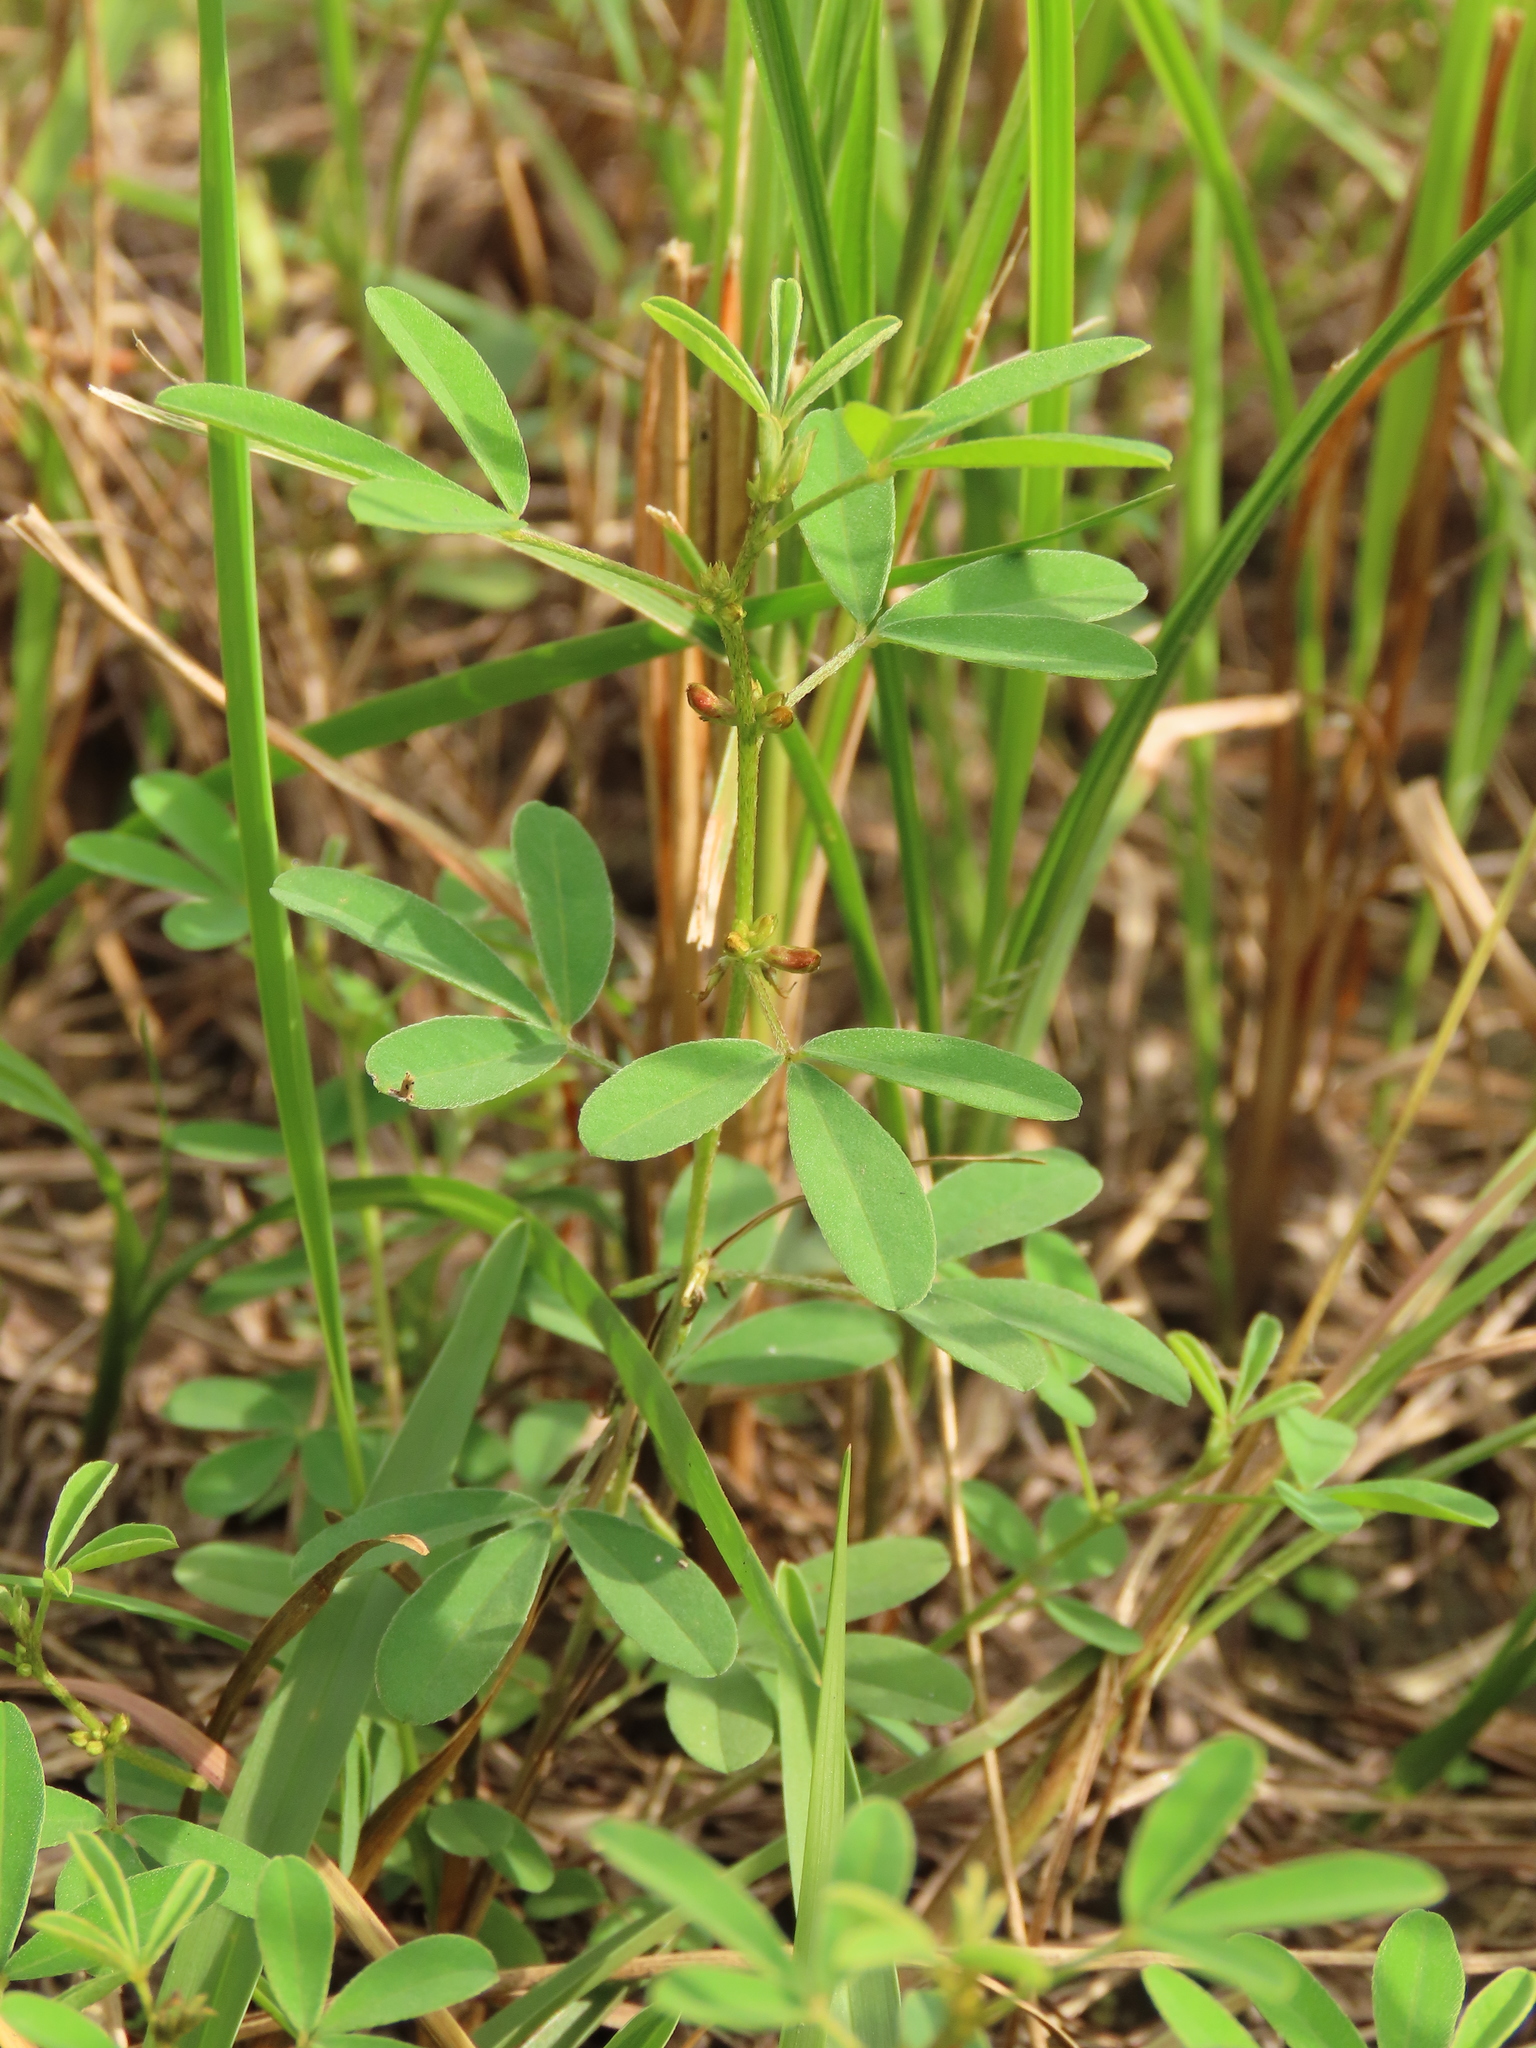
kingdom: Plantae
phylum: Tracheophyta
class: Magnoliopsida
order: Fabales
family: Fabaceae
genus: Lespedeza
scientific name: Lespedeza cuneata
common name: Chinese bush-clover
